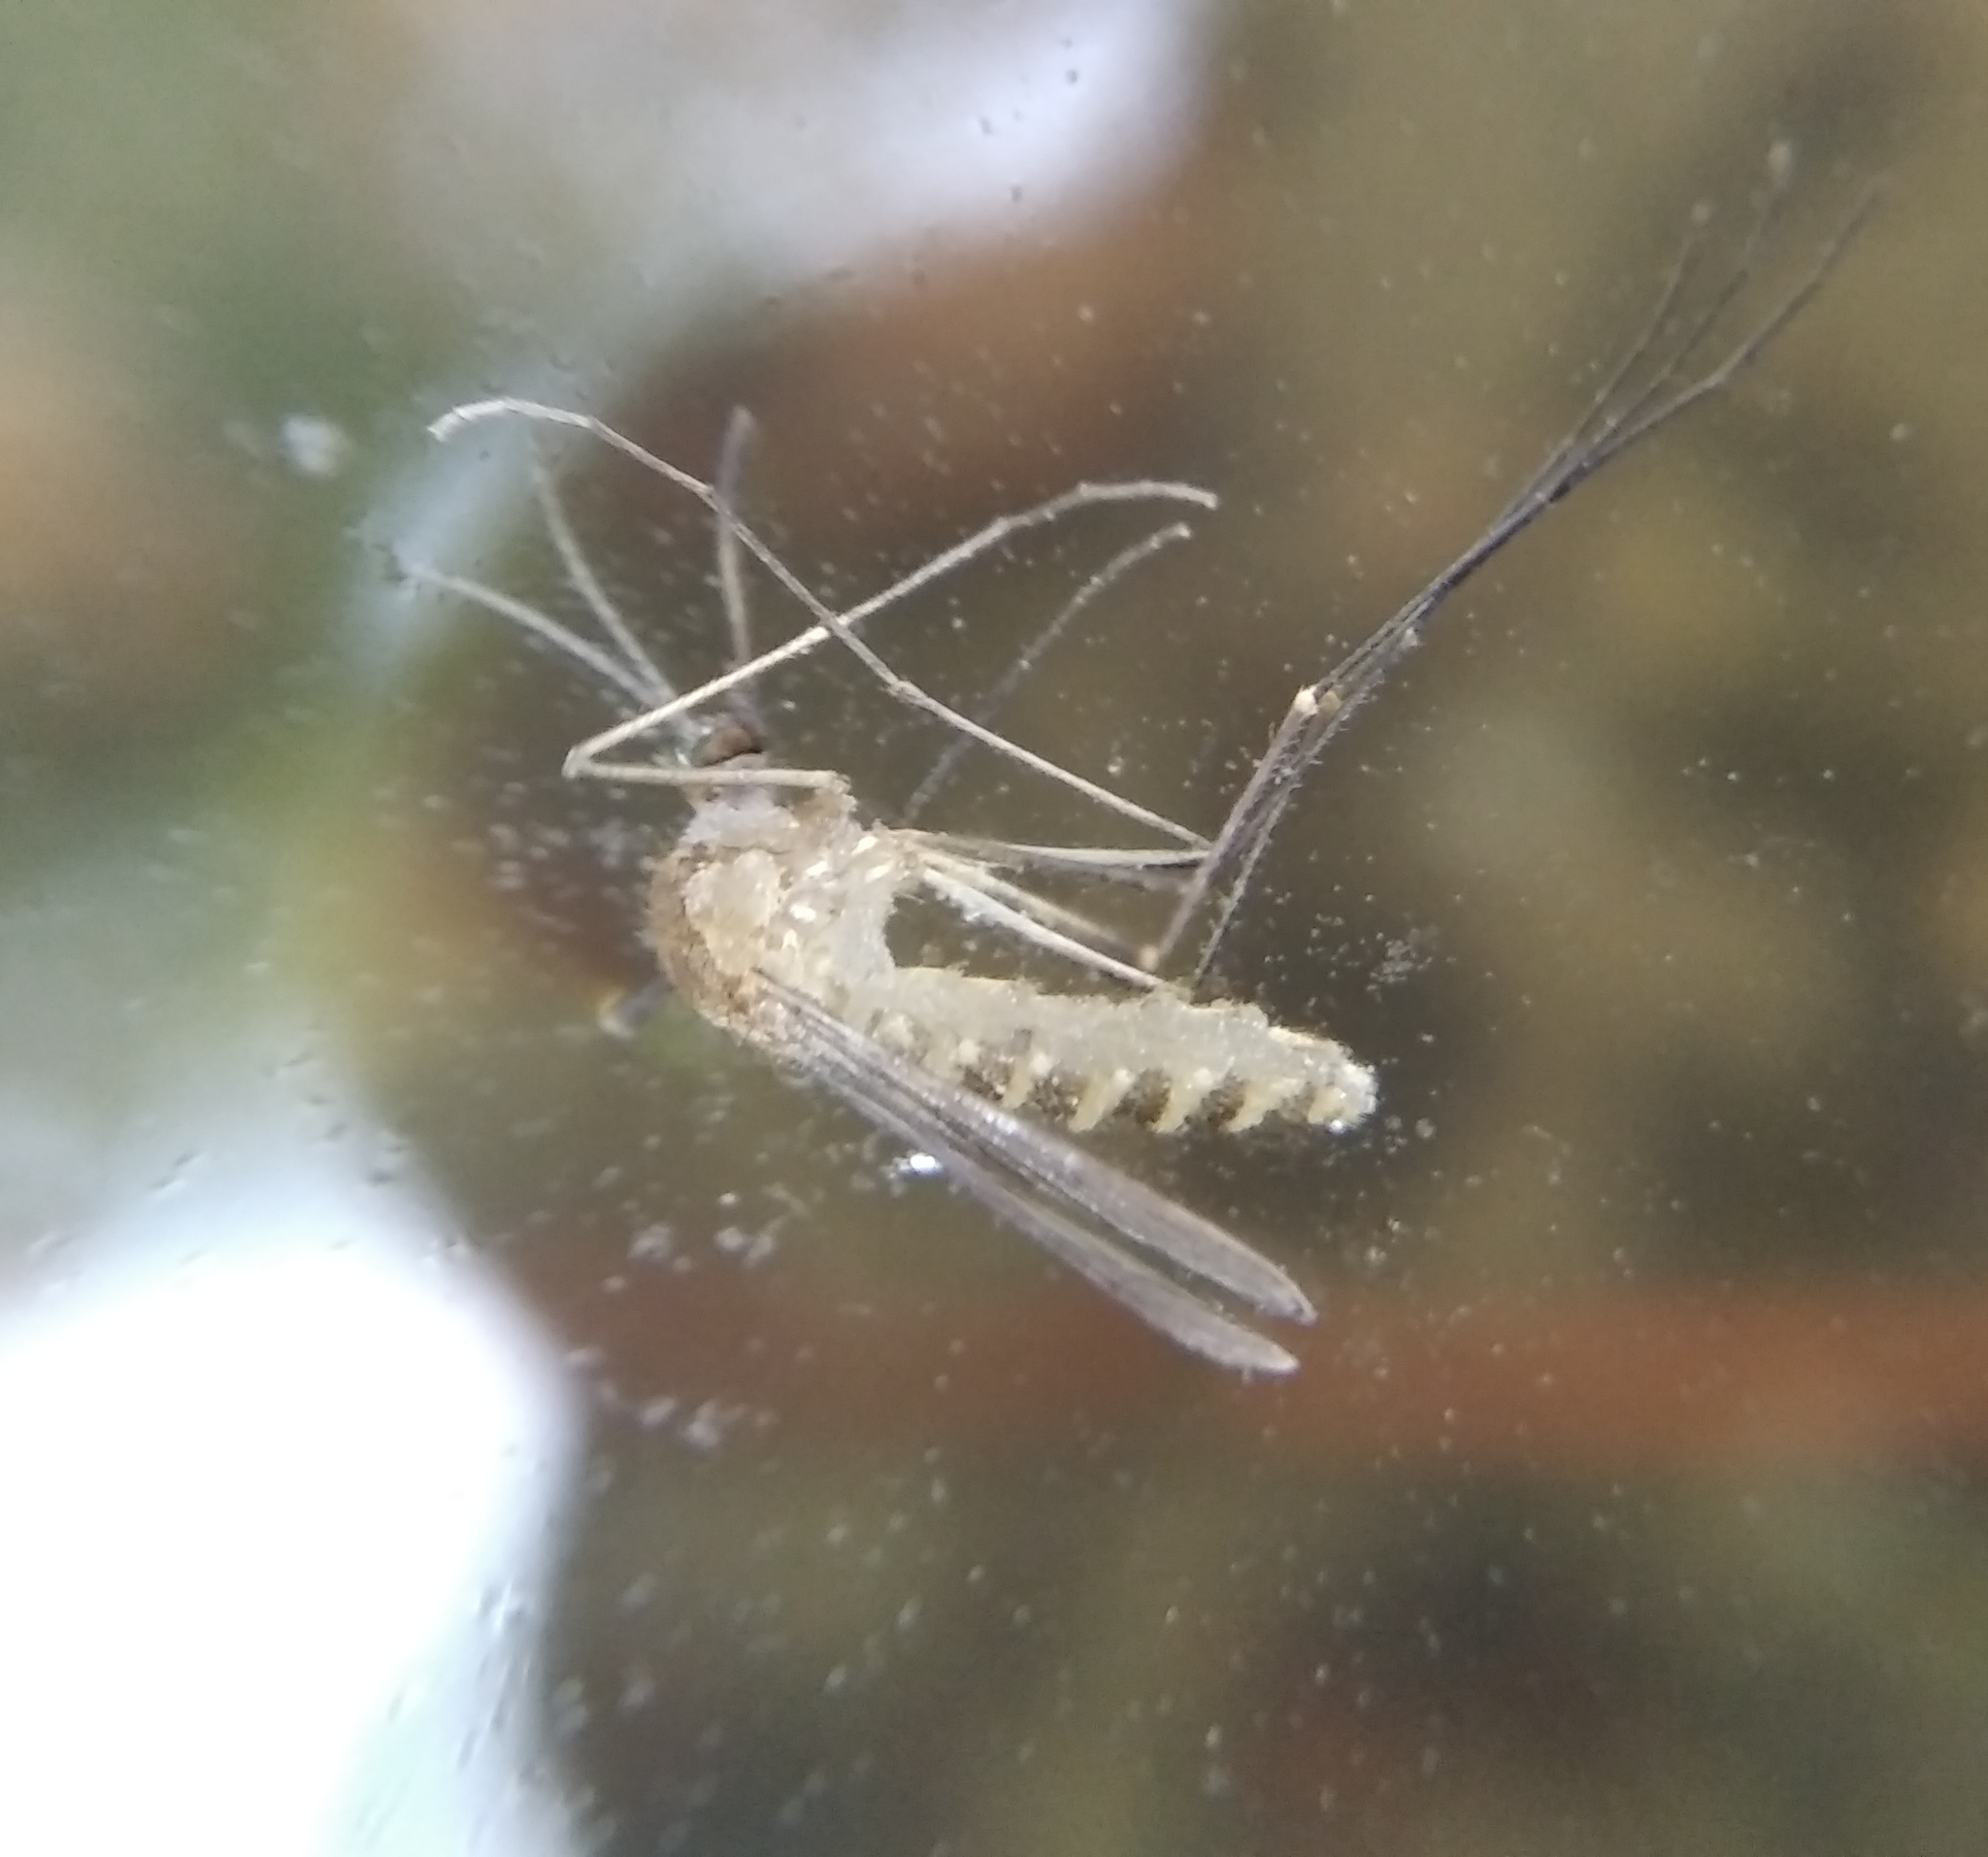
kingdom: Animalia
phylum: Arthropoda
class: Insecta
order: Diptera
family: Culicidae
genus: Culex
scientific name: Culex pipiens
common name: Mosquito
